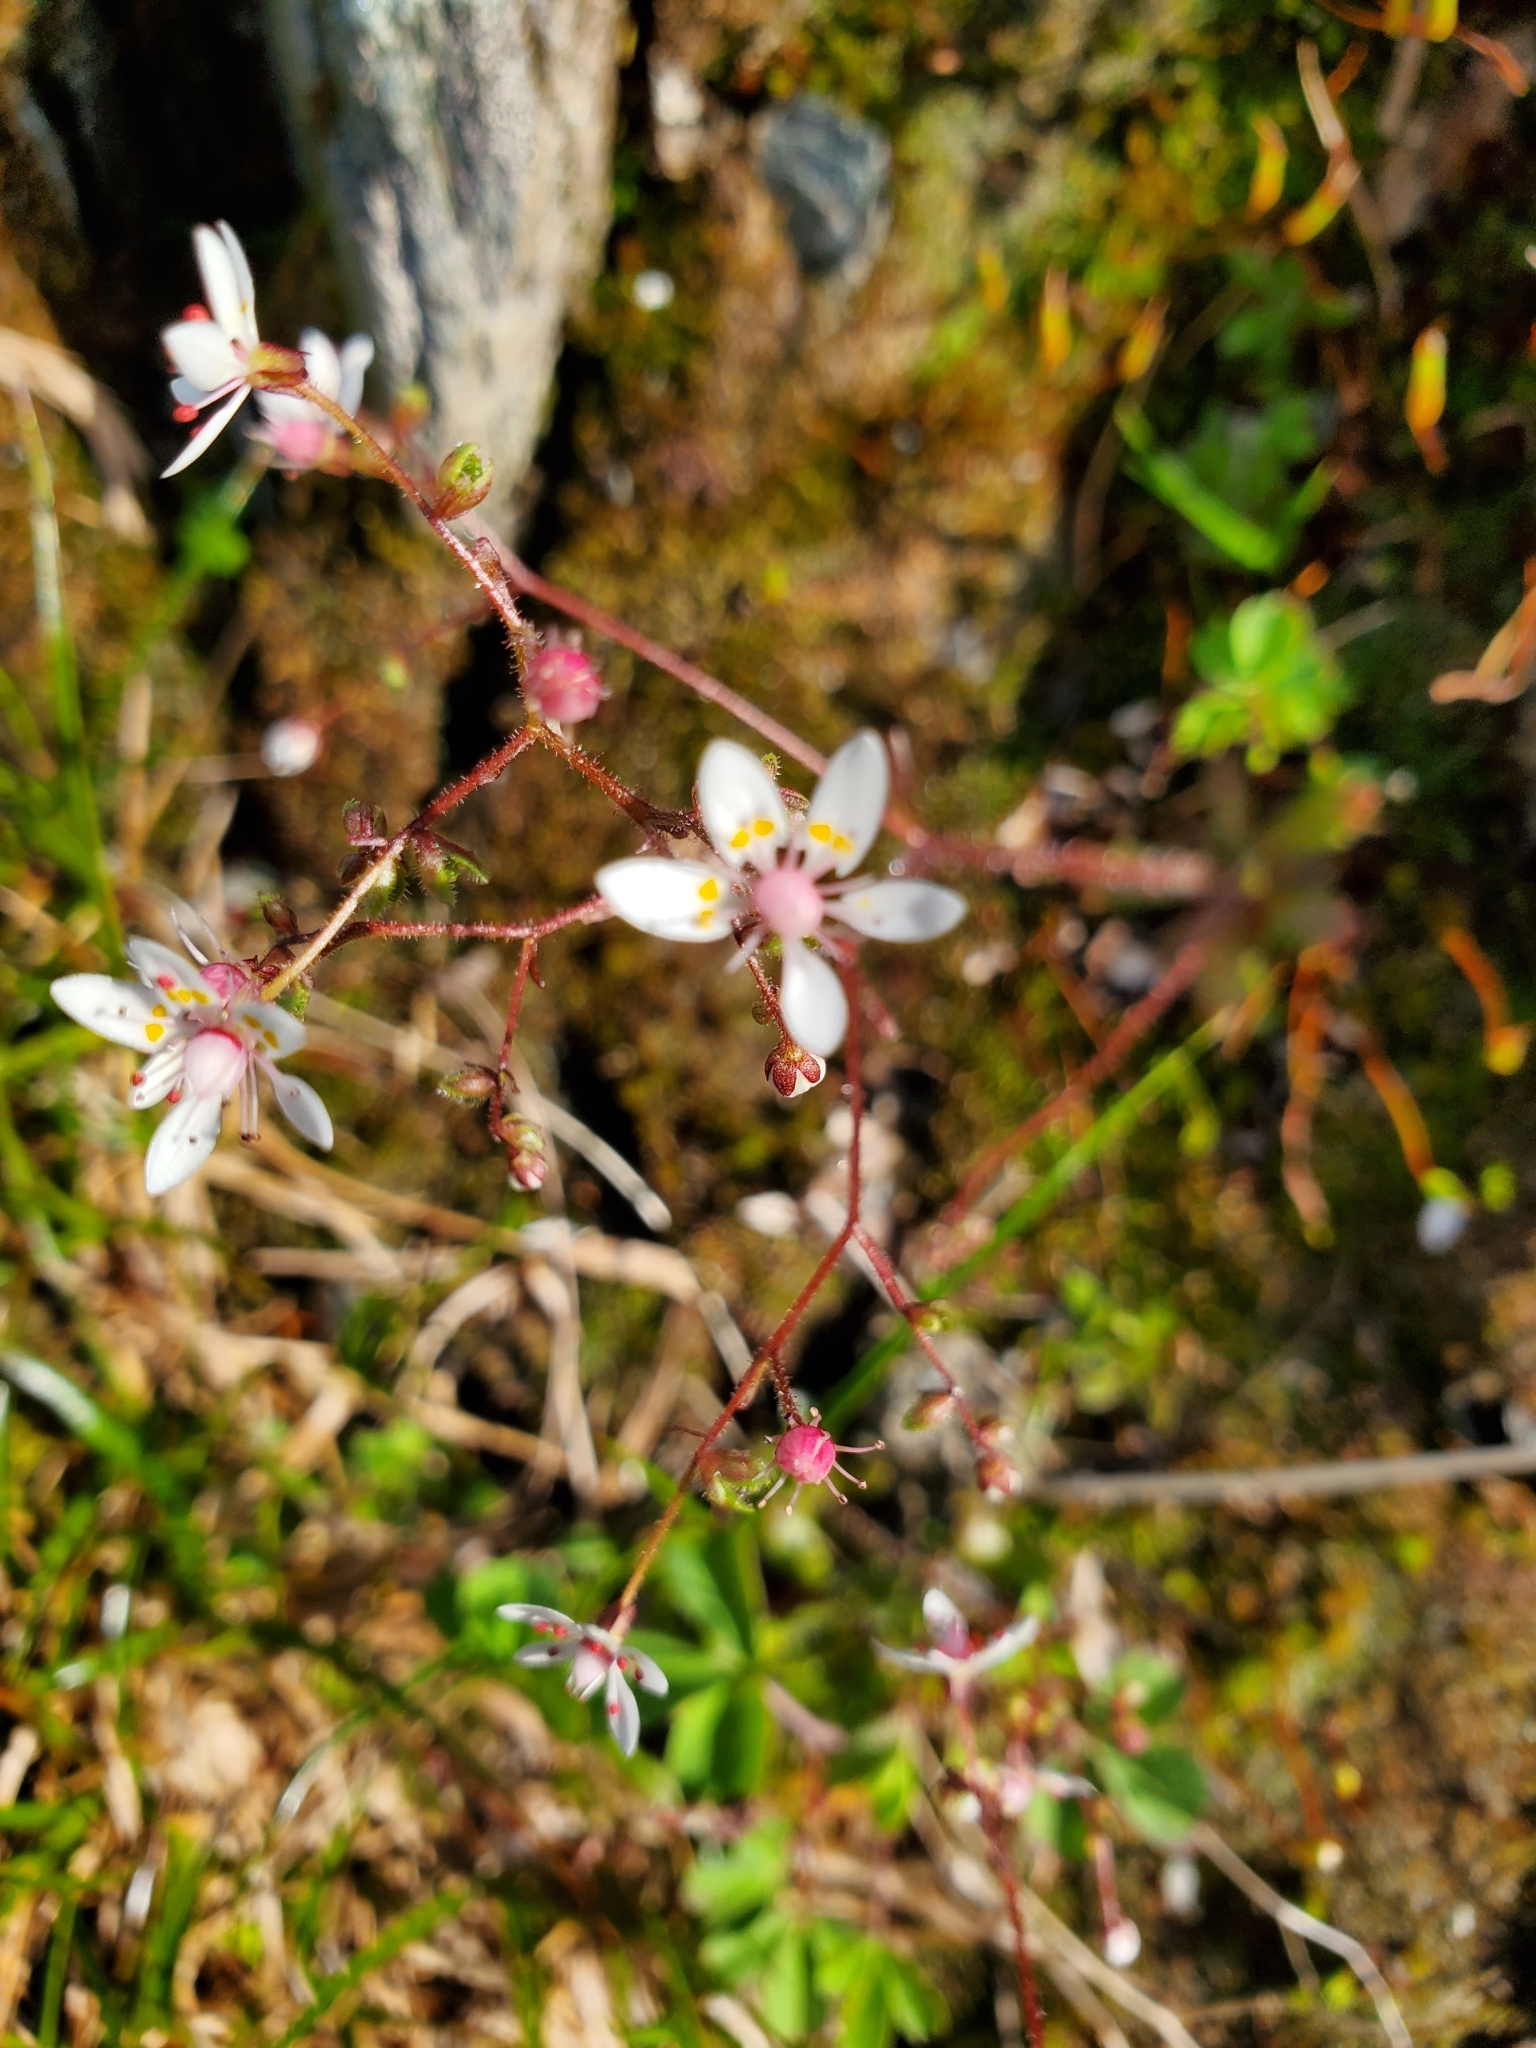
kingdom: Plantae
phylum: Tracheophyta
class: Magnoliopsida
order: Saxifragales
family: Saxifragaceae
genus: Micranthes
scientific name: Micranthes ferruginea
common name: Rusty saxifrage
